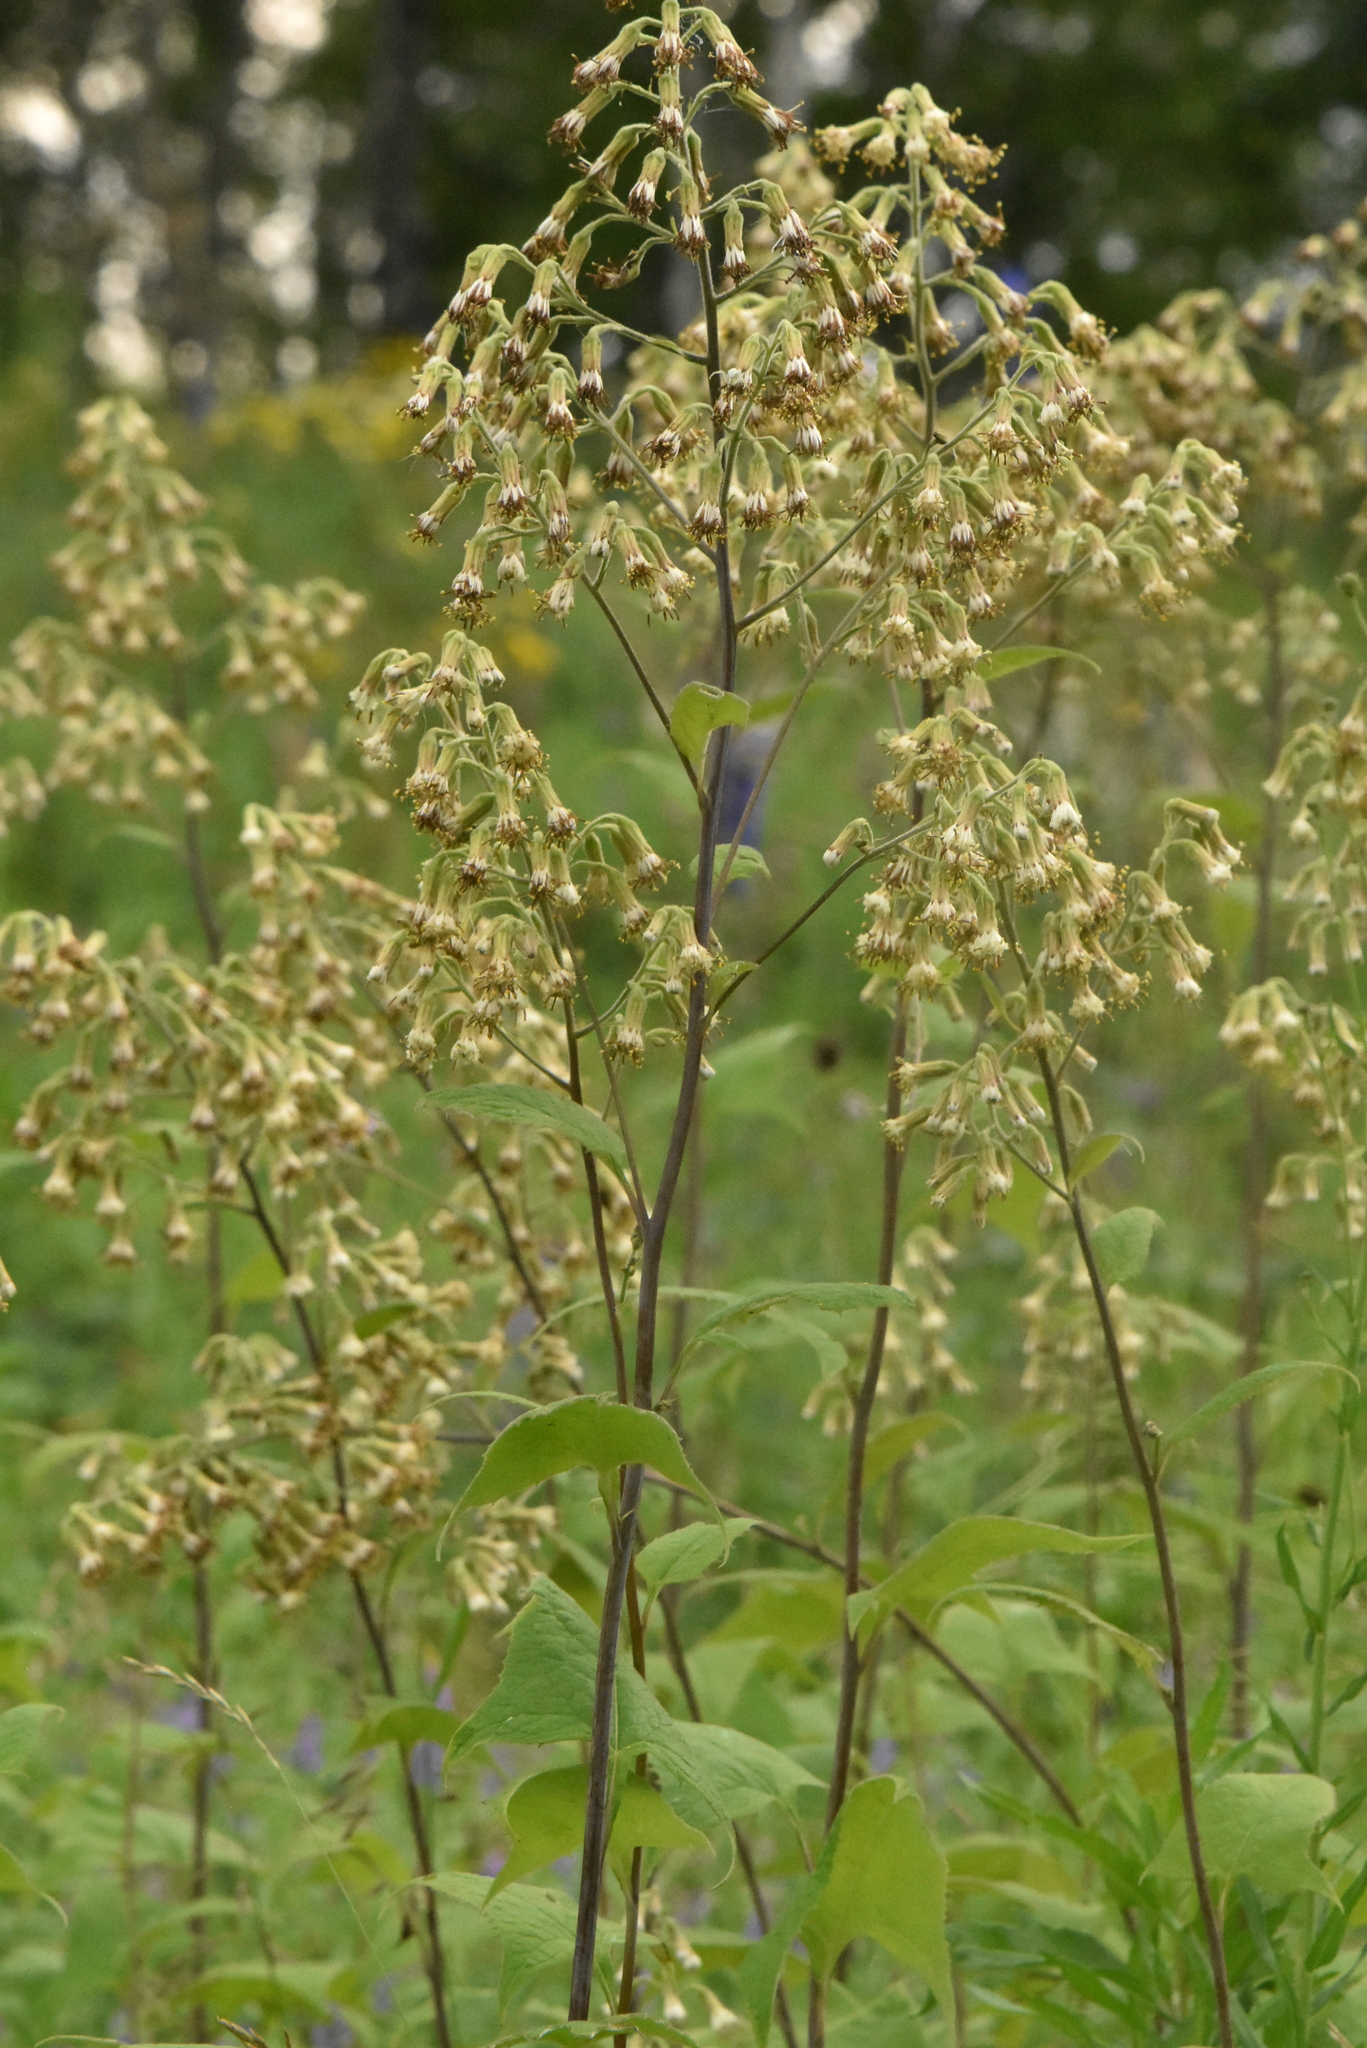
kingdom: Plantae
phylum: Tracheophyta
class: Magnoliopsida
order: Asterales
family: Asteraceae
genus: Parasenecio
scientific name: Parasenecio hastatus
